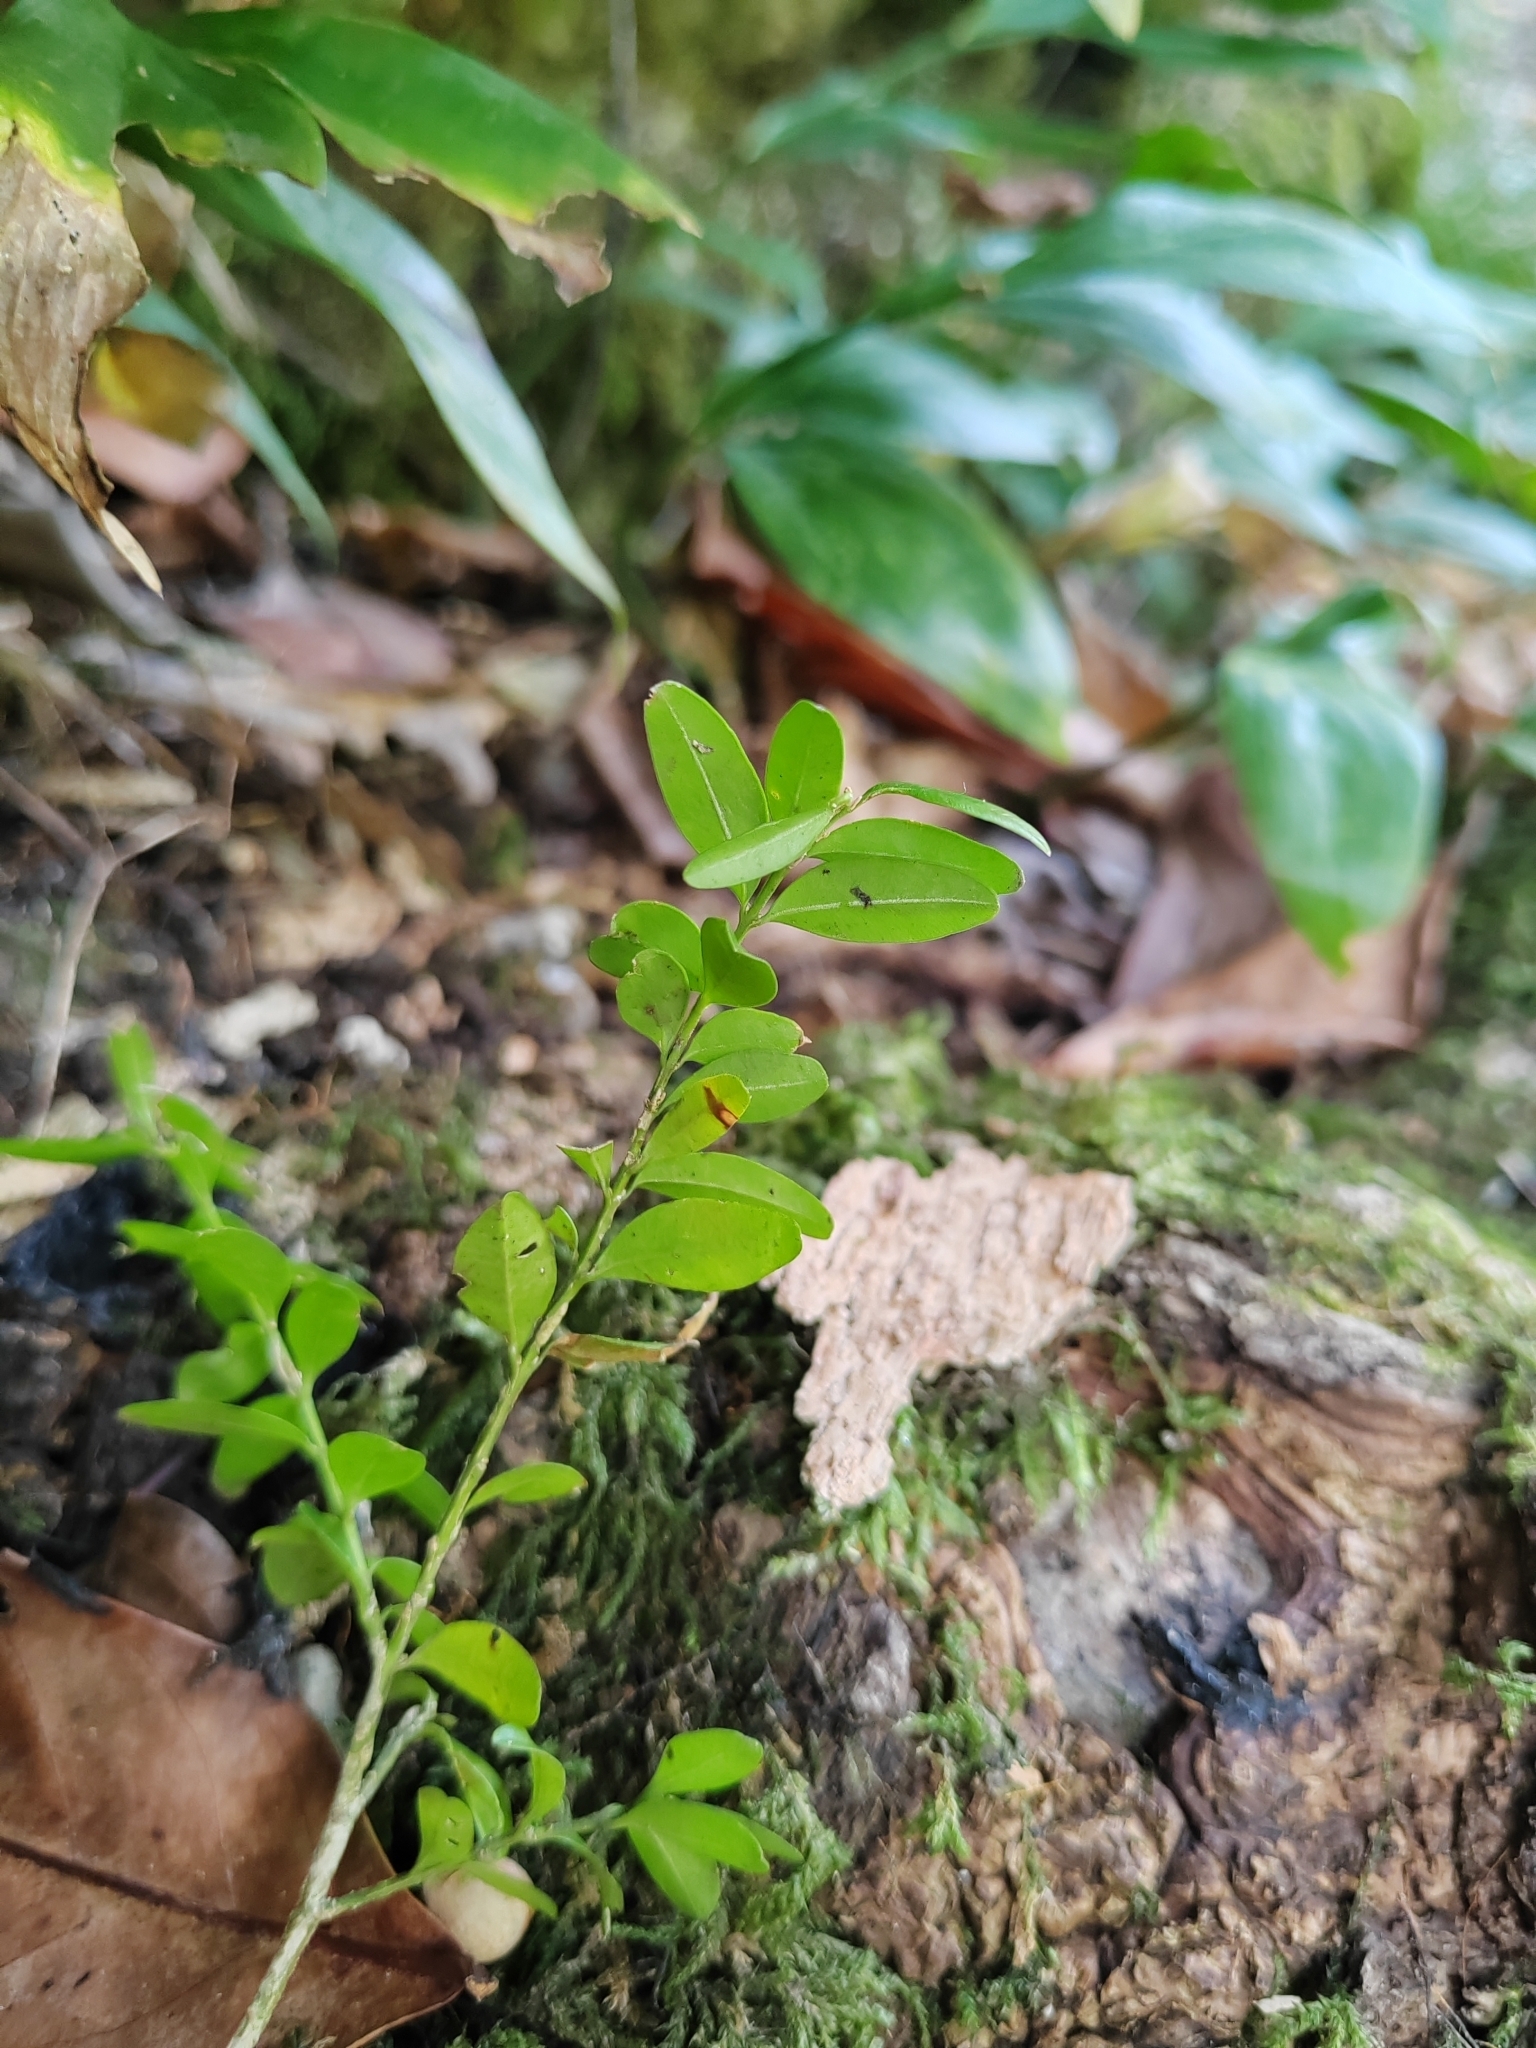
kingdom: Plantae
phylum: Tracheophyta
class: Magnoliopsida
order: Buxales
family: Buxaceae
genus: Buxus
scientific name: Buxus sempervirens
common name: Box
